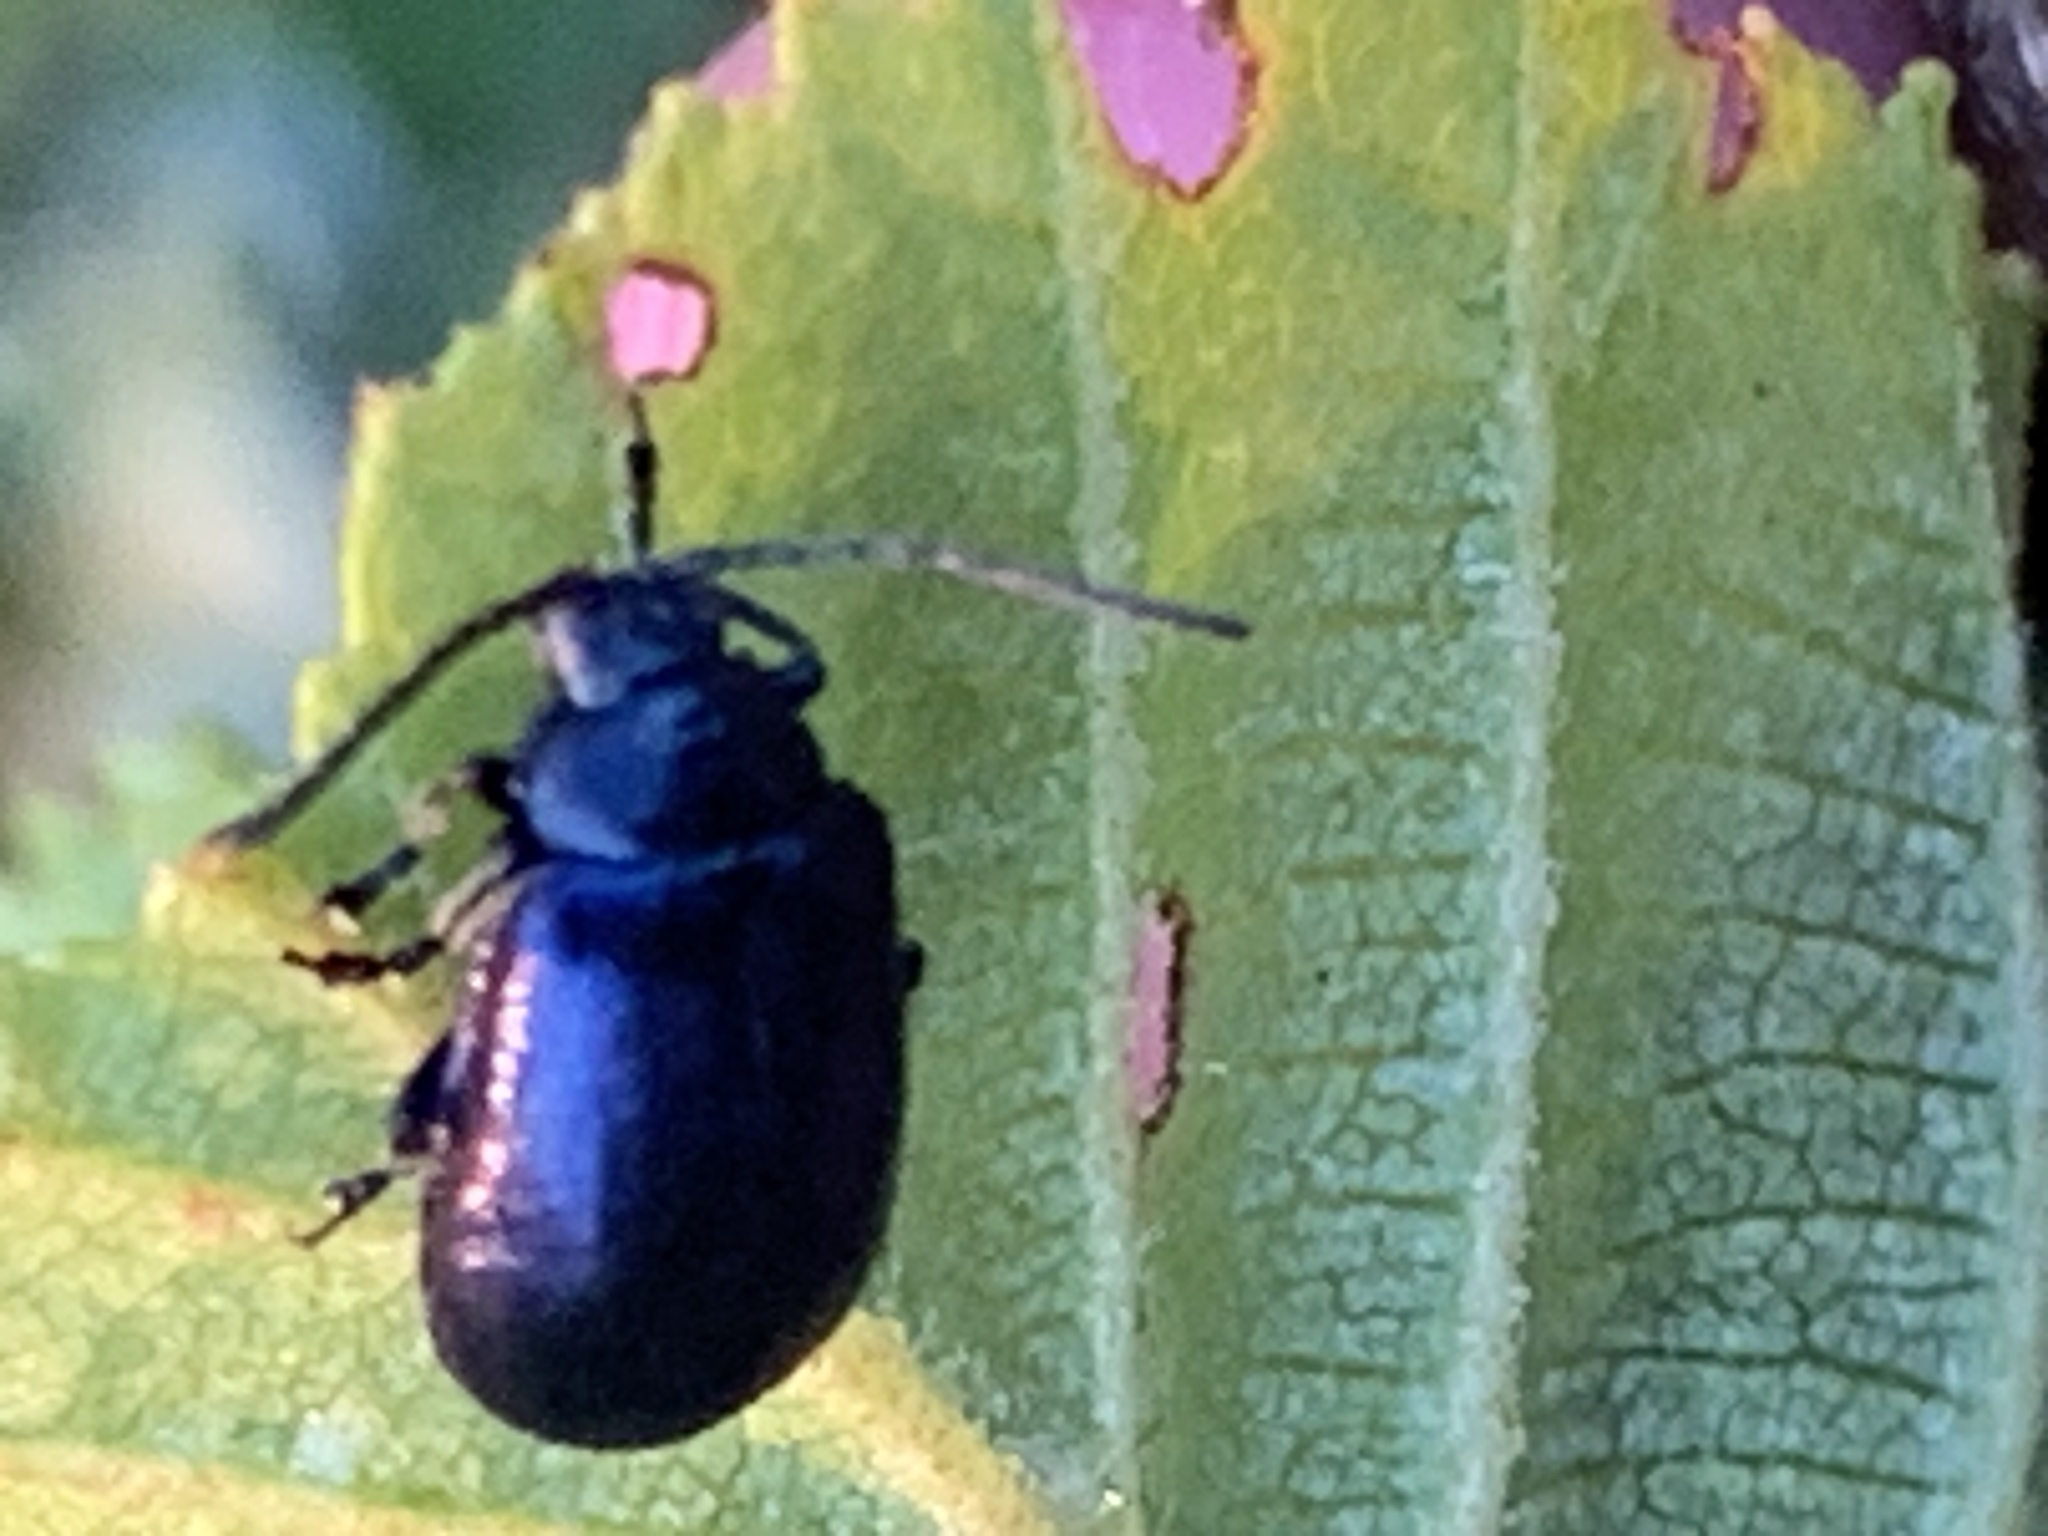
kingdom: Animalia
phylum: Arthropoda
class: Insecta
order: Coleoptera
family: Chrysomelidae
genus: Agelastica
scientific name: Agelastica alni
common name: Alder leaf beetle
